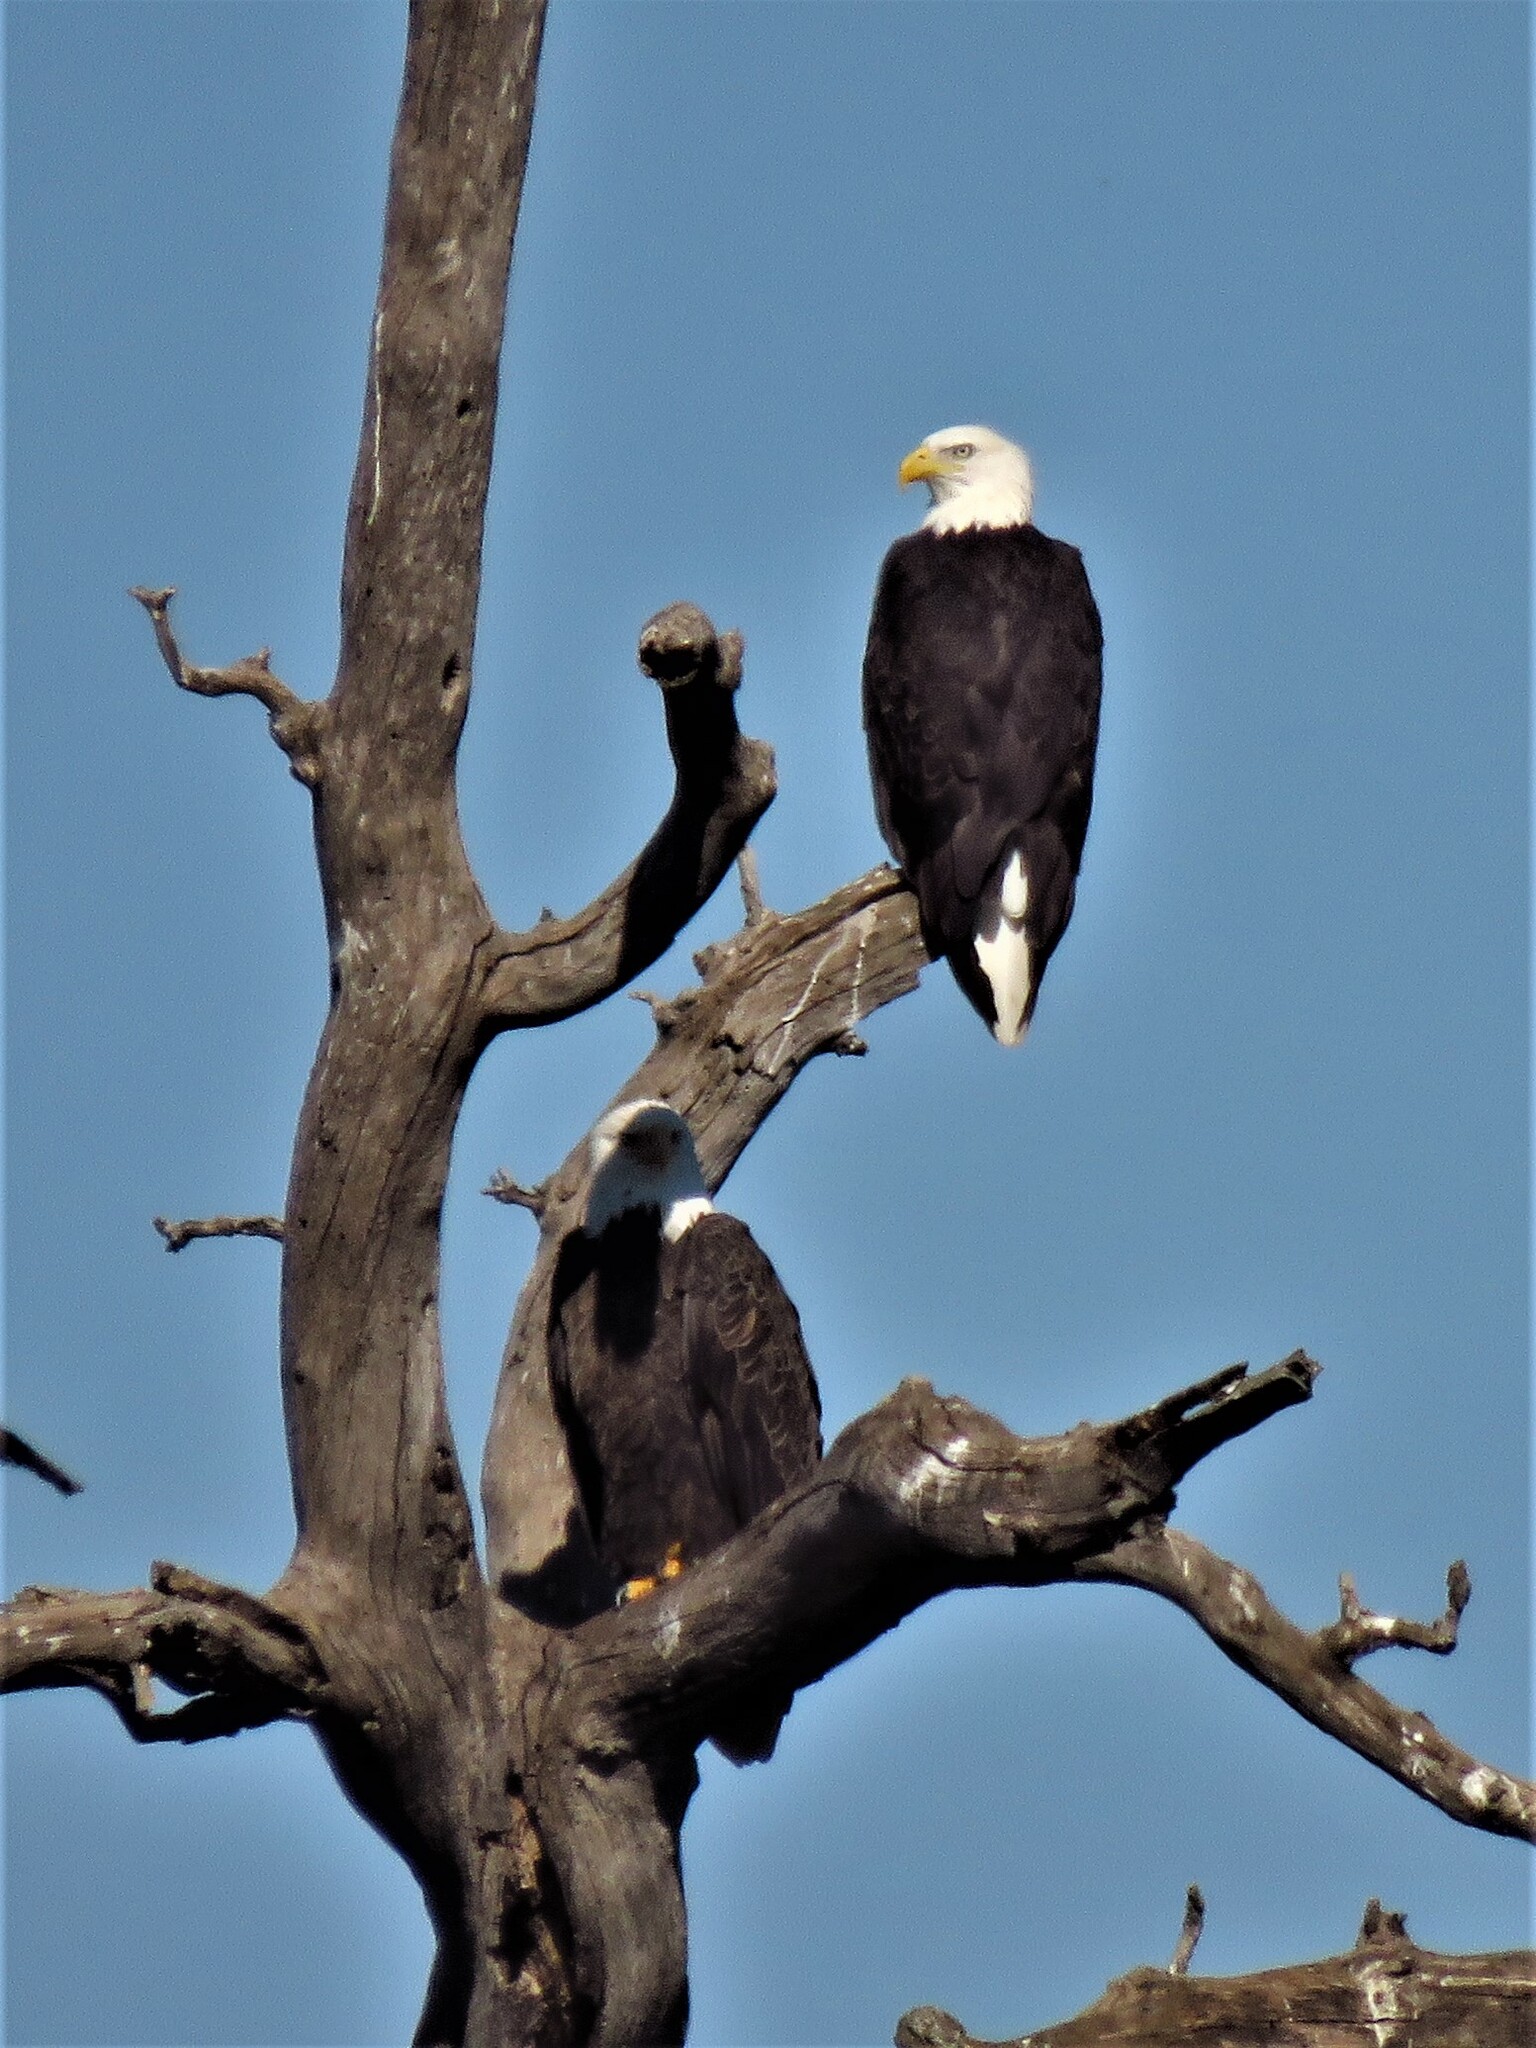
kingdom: Animalia
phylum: Chordata
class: Aves
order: Accipitriformes
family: Accipitridae
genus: Haliaeetus
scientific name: Haliaeetus leucocephalus
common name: Bald eagle
